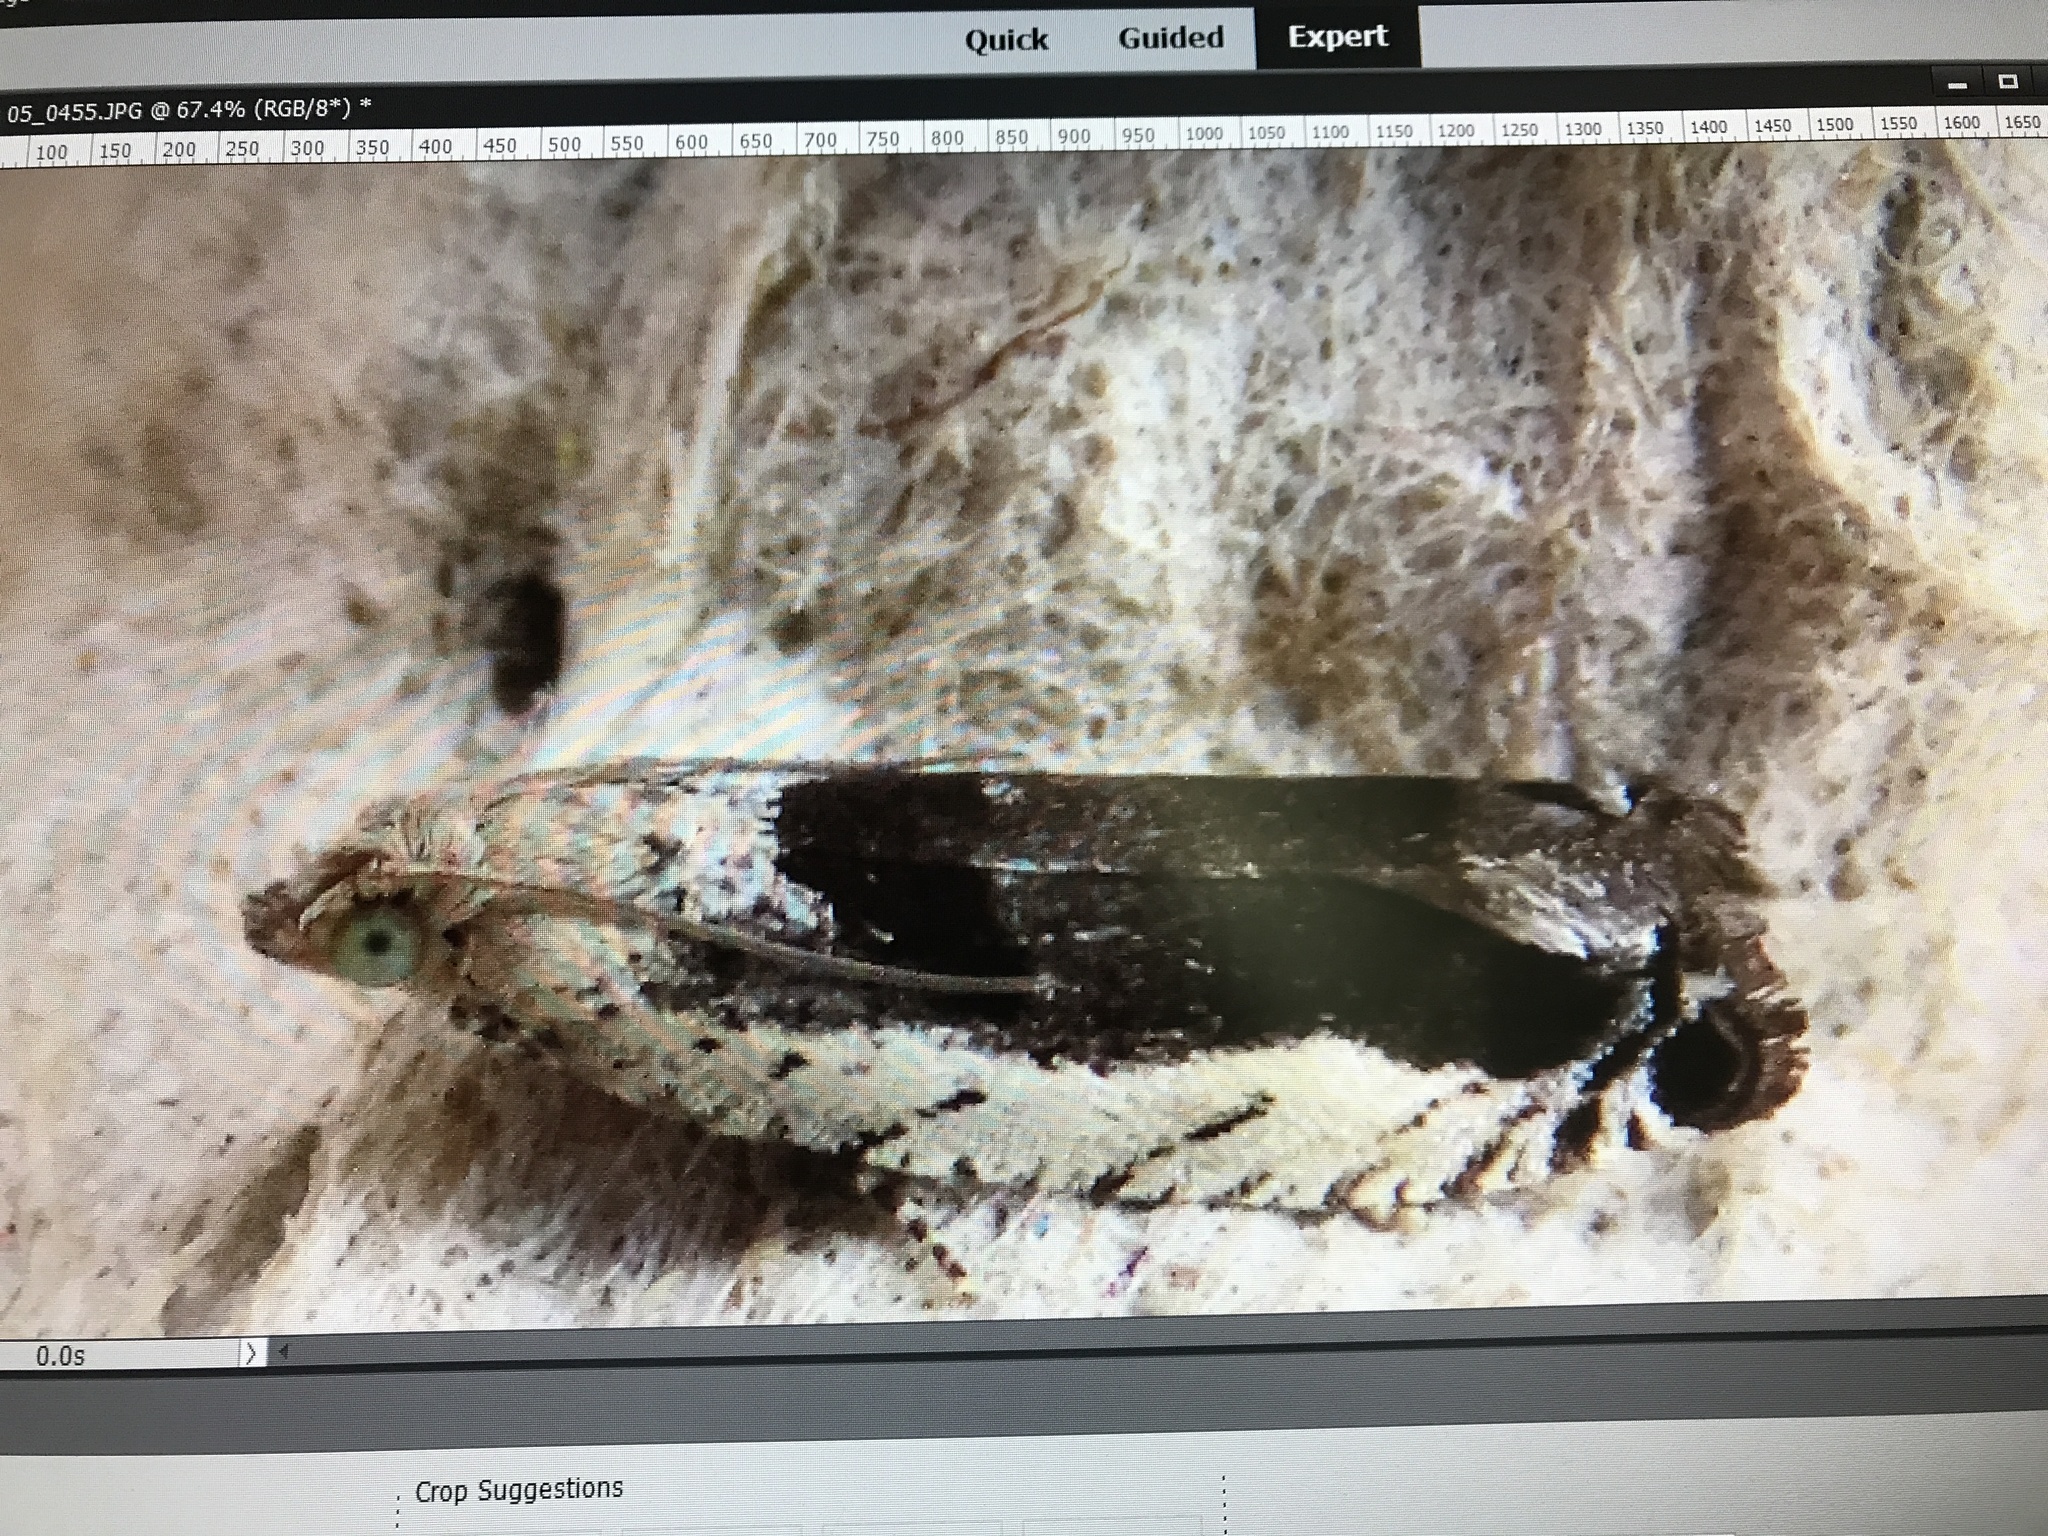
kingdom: Animalia
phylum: Arthropoda
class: Insecta
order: Lepidoptera
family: Tortricidae
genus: Epinotia
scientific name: Epinotia ramella
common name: Small birch bell
